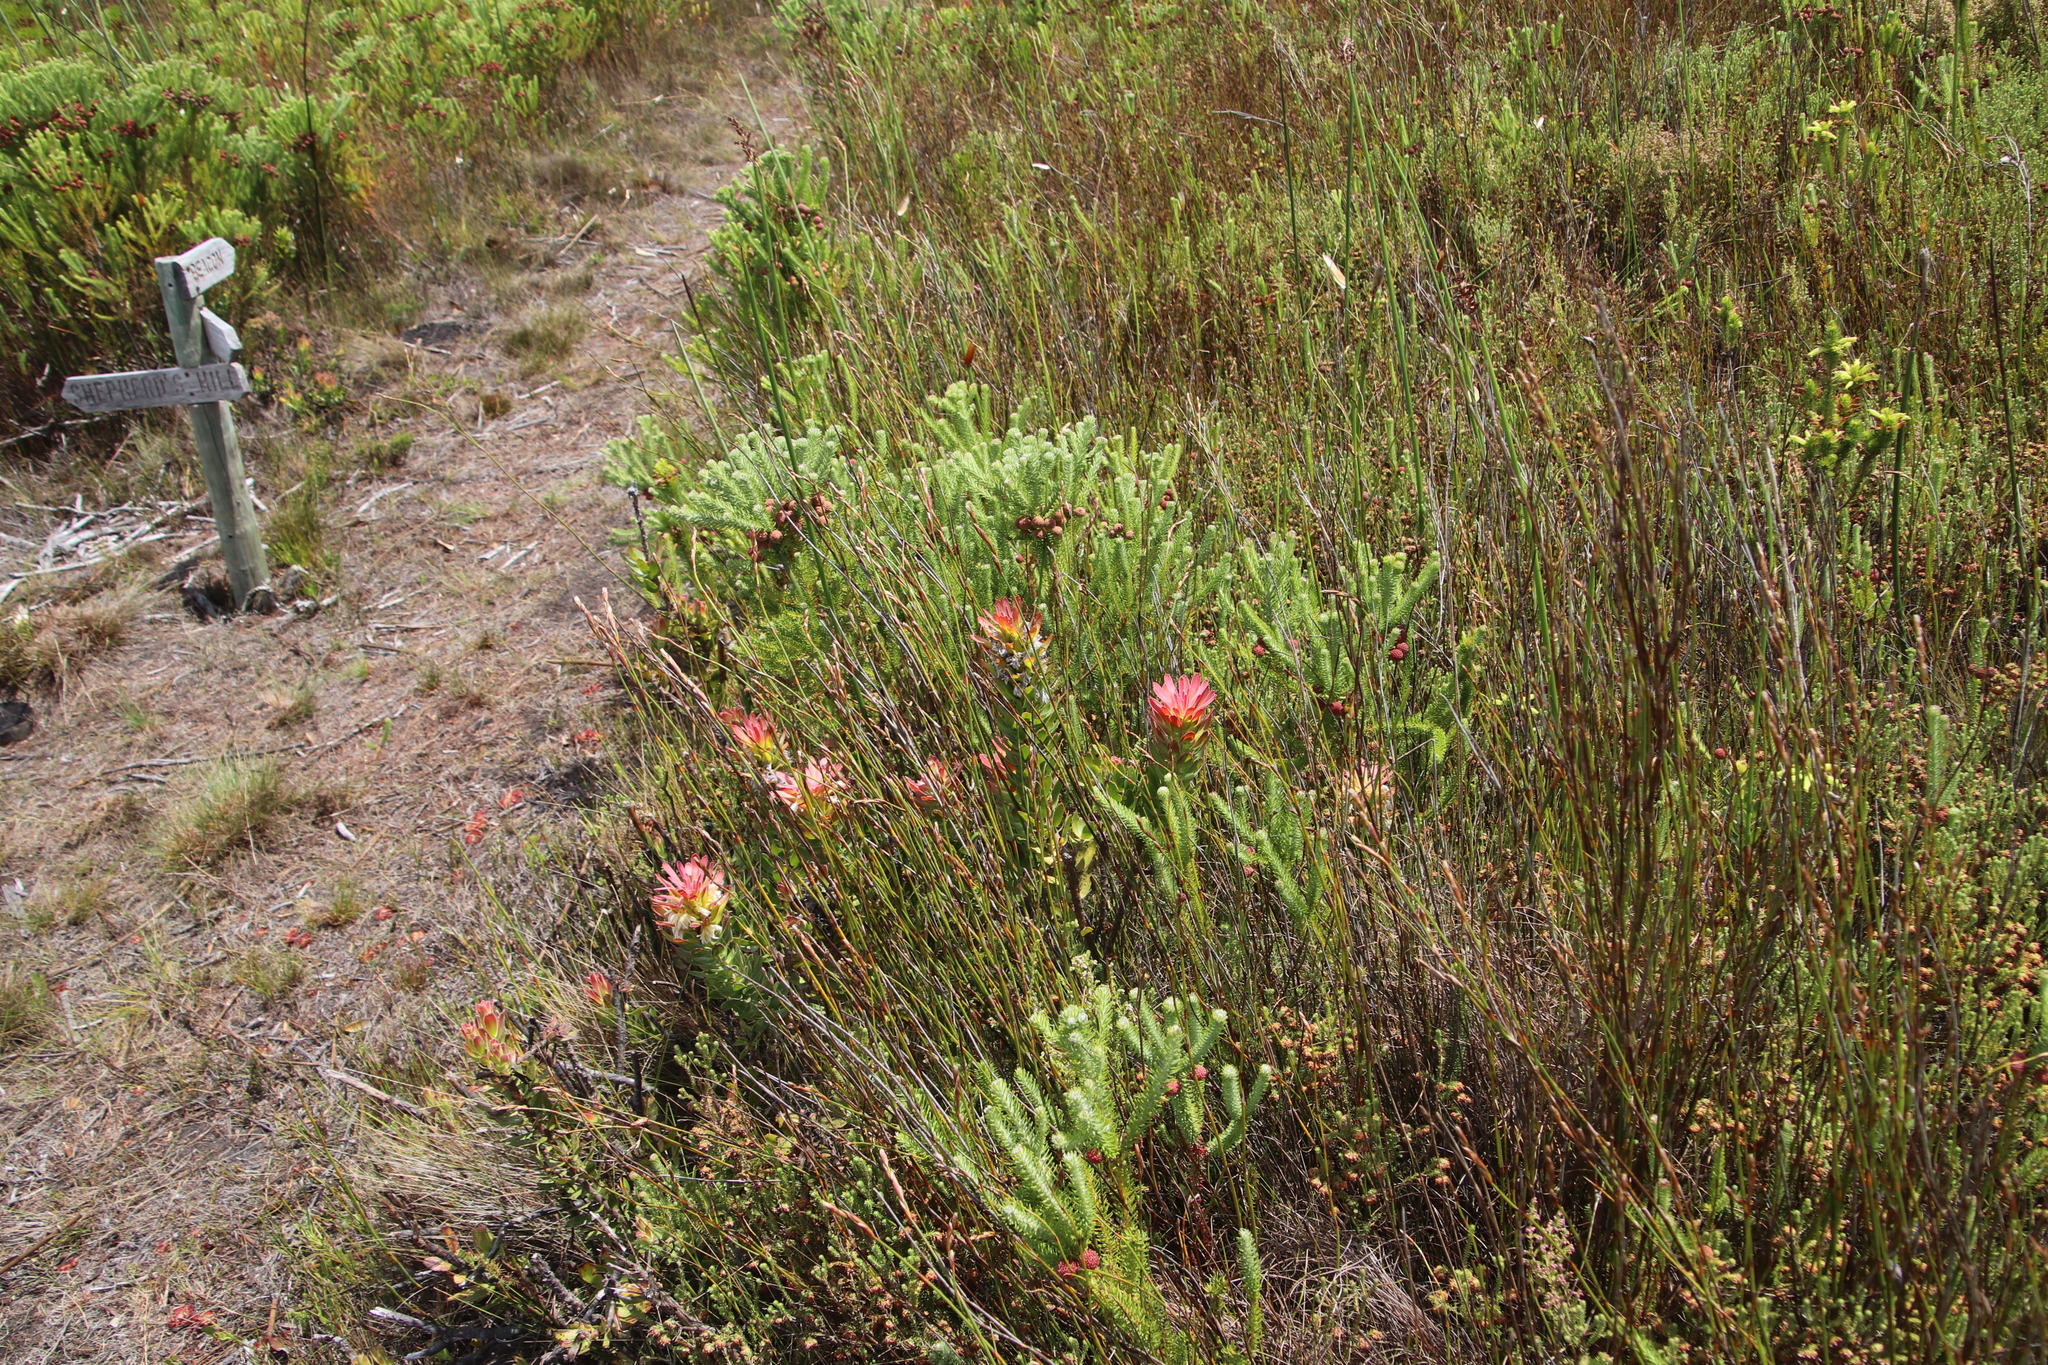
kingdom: Plantae
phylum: Tracheophyta
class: Magnoliopsida
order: Proteales
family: Proteaceae
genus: Mimetes
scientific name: Mimetes cucullatus
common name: Common pagoda
